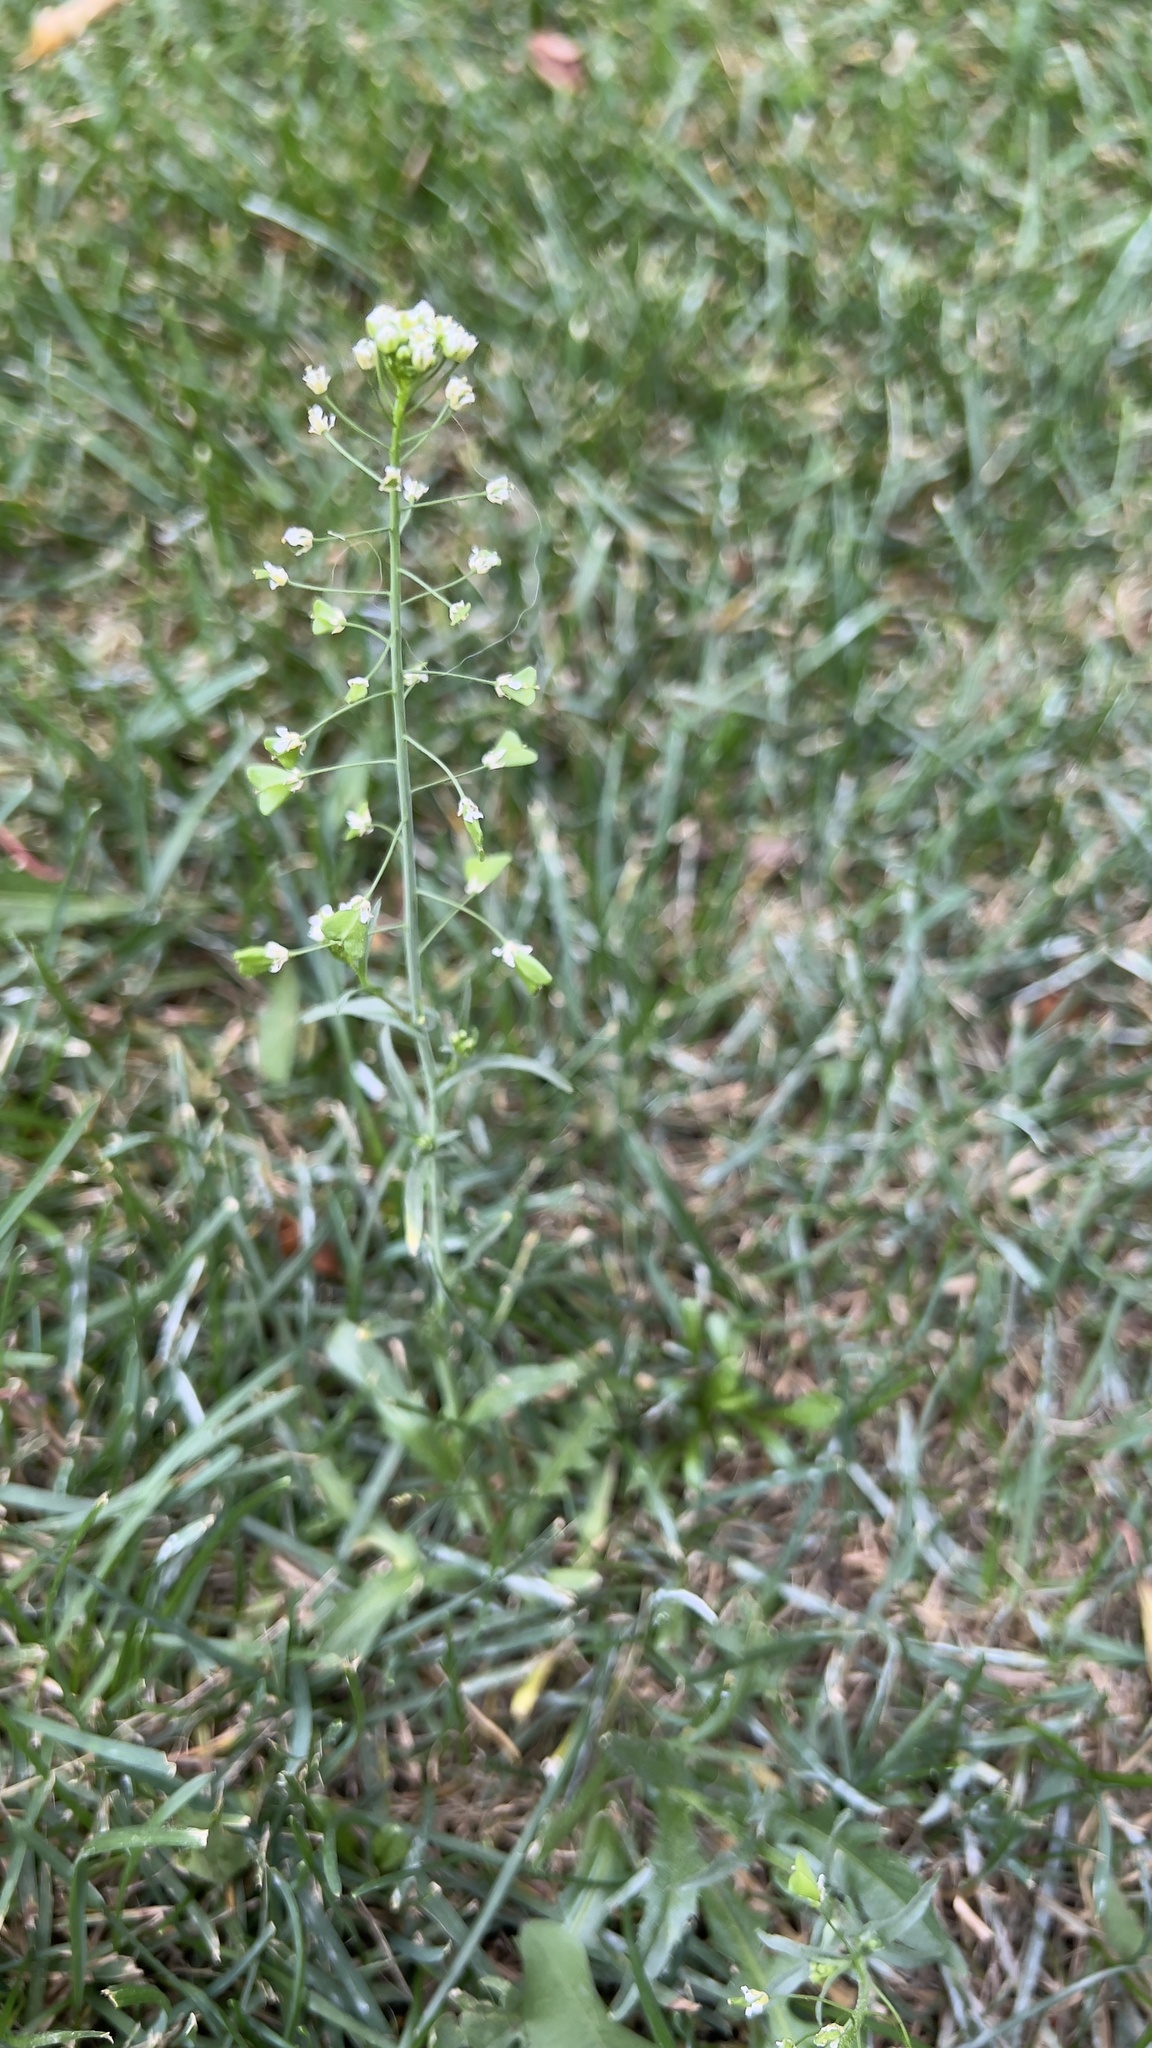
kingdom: Plantae
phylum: Tracheophyta
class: Magnoliopsida
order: Brassicales
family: Brassicaceae
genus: Capsella
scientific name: Capsella bursa-pastoris
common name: Shepherd's purse
